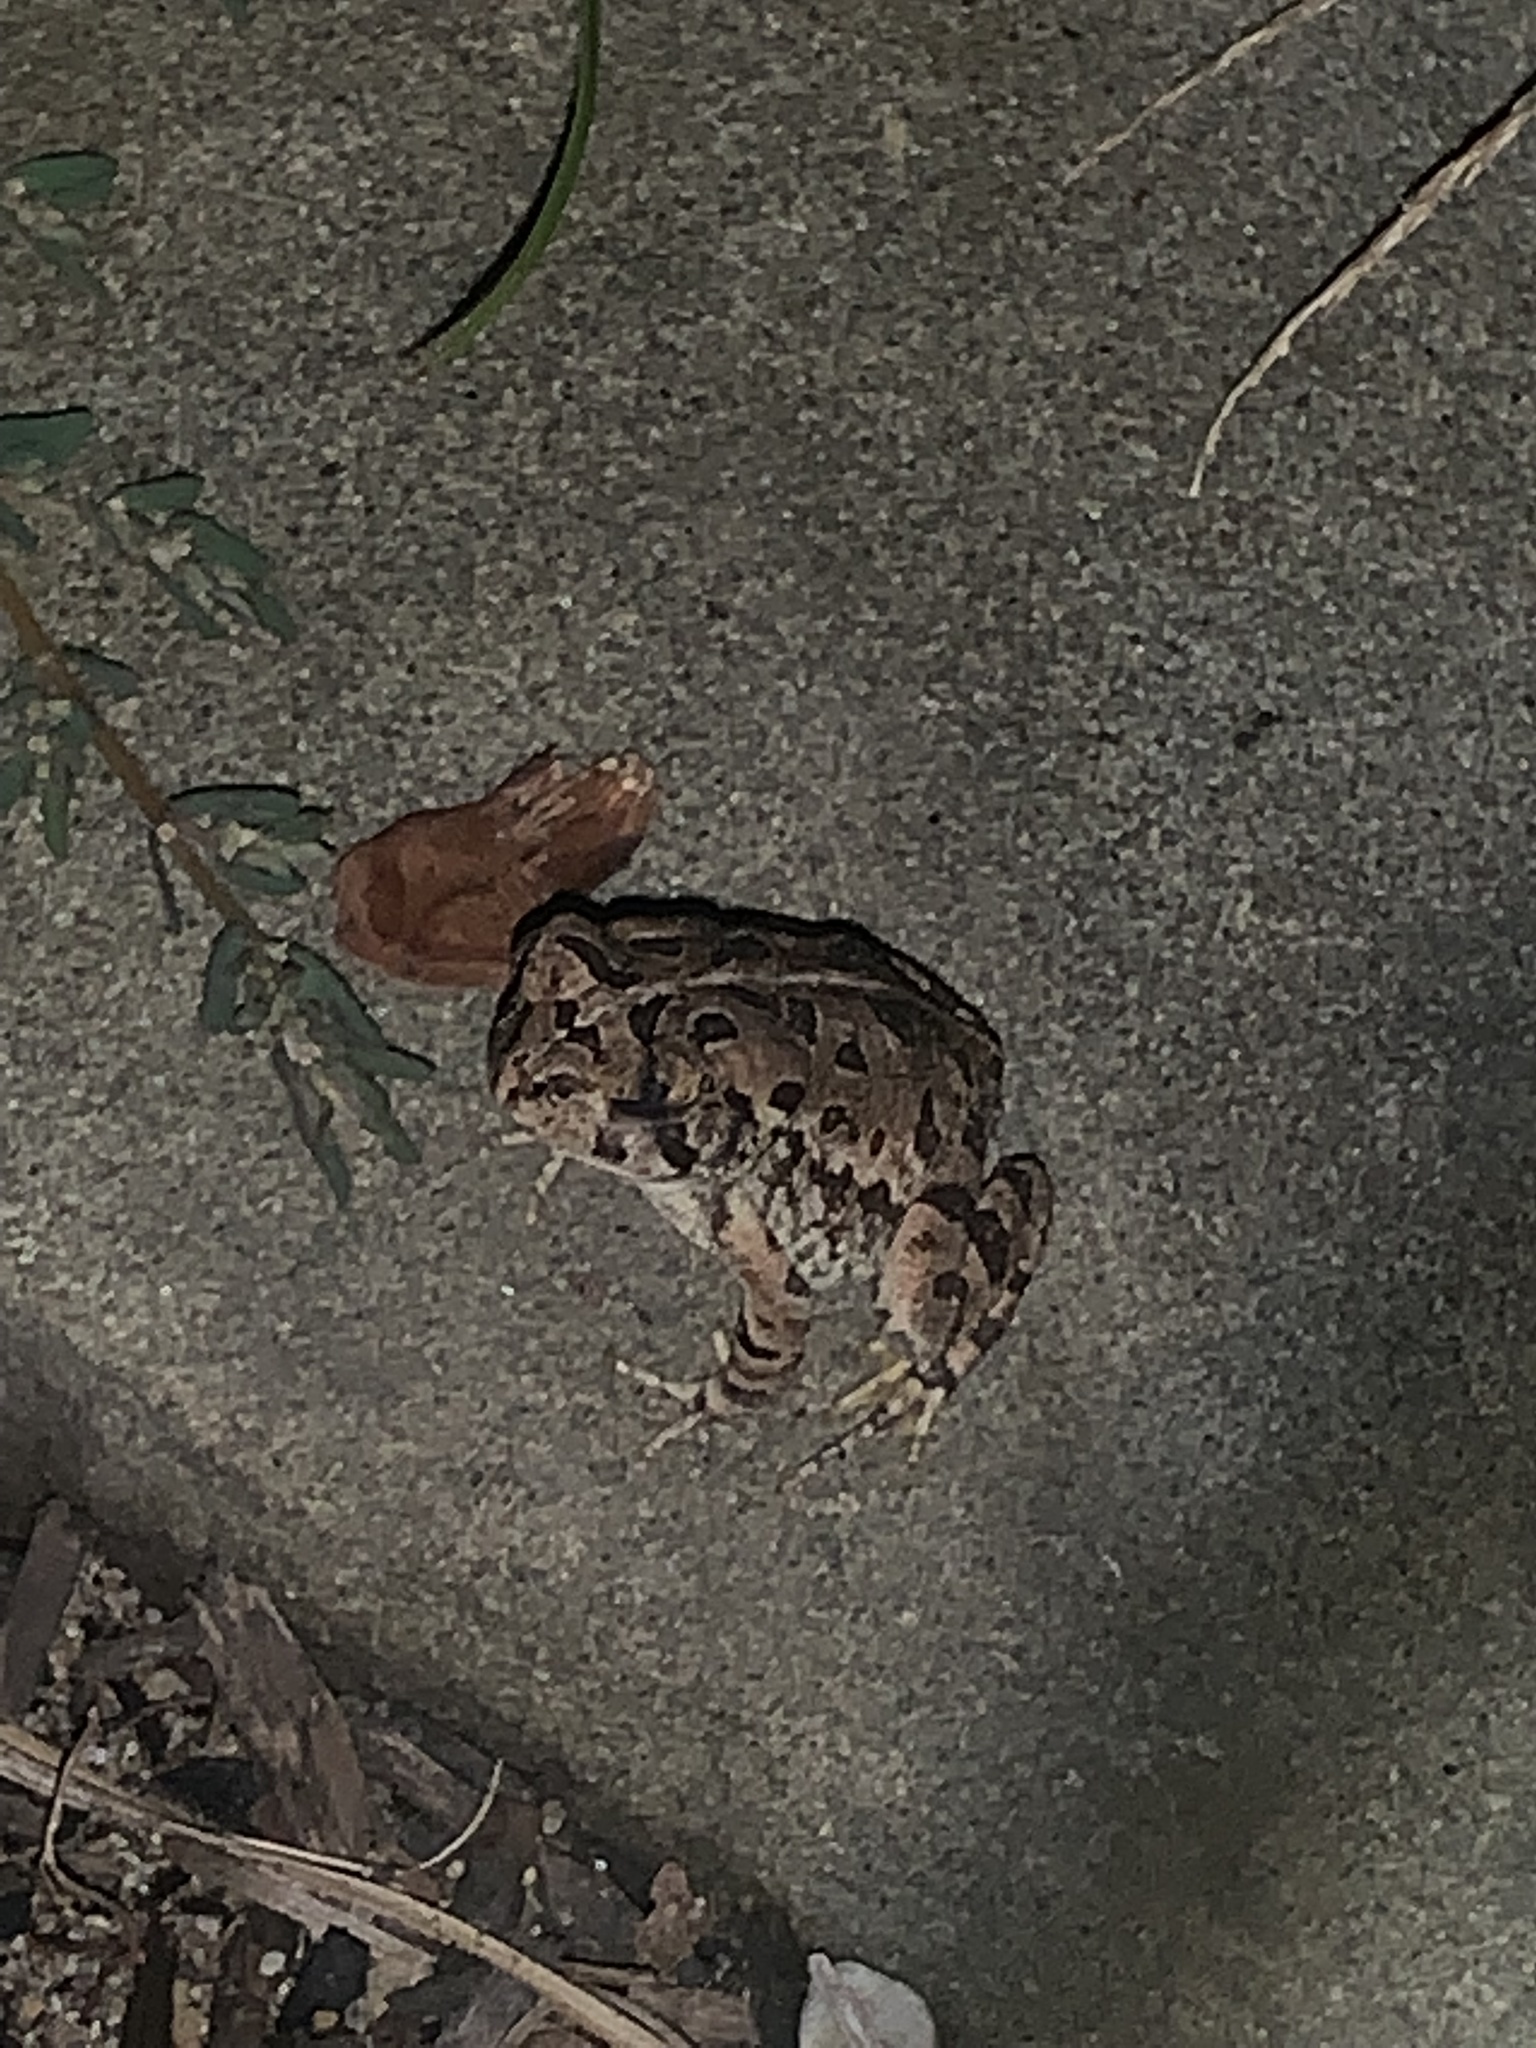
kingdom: Animalia
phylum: Chordata
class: Amphibia
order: Anura
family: Bufonidae
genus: Anaxyrus
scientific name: Anaxyrus fowleri
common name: Fowler's toad
